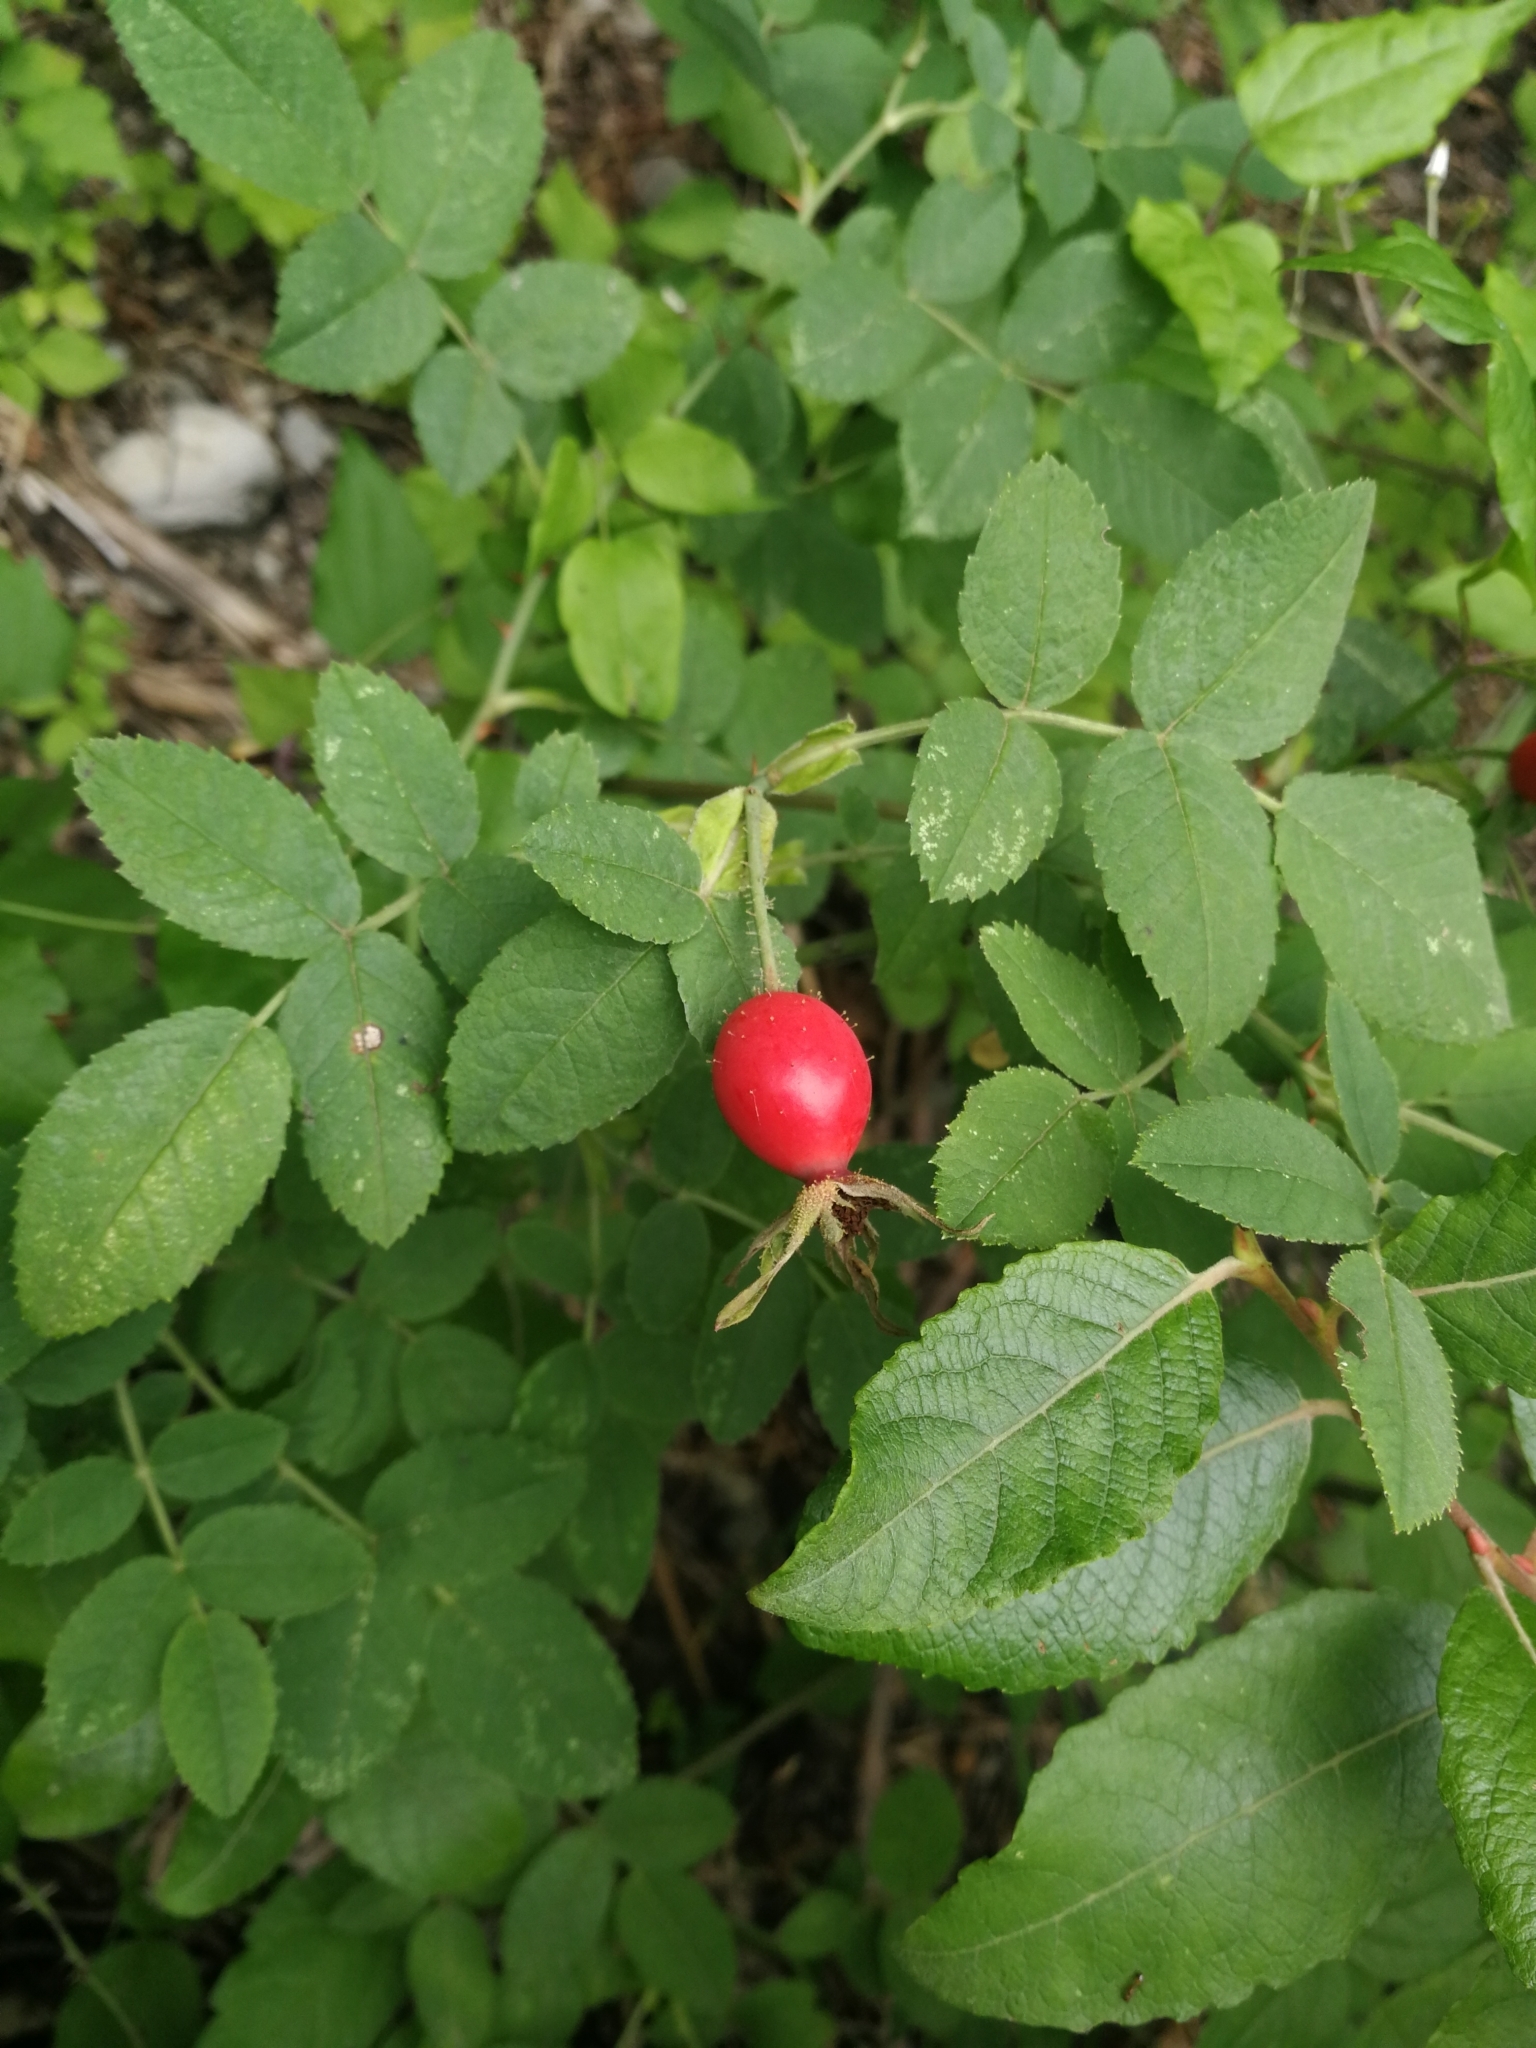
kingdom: Plantae
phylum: Tracheophyta
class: Magnoliopsida
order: Rosales
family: Rosaceae
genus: Rosa
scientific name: Rosa tomentosa
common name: Downy rose
